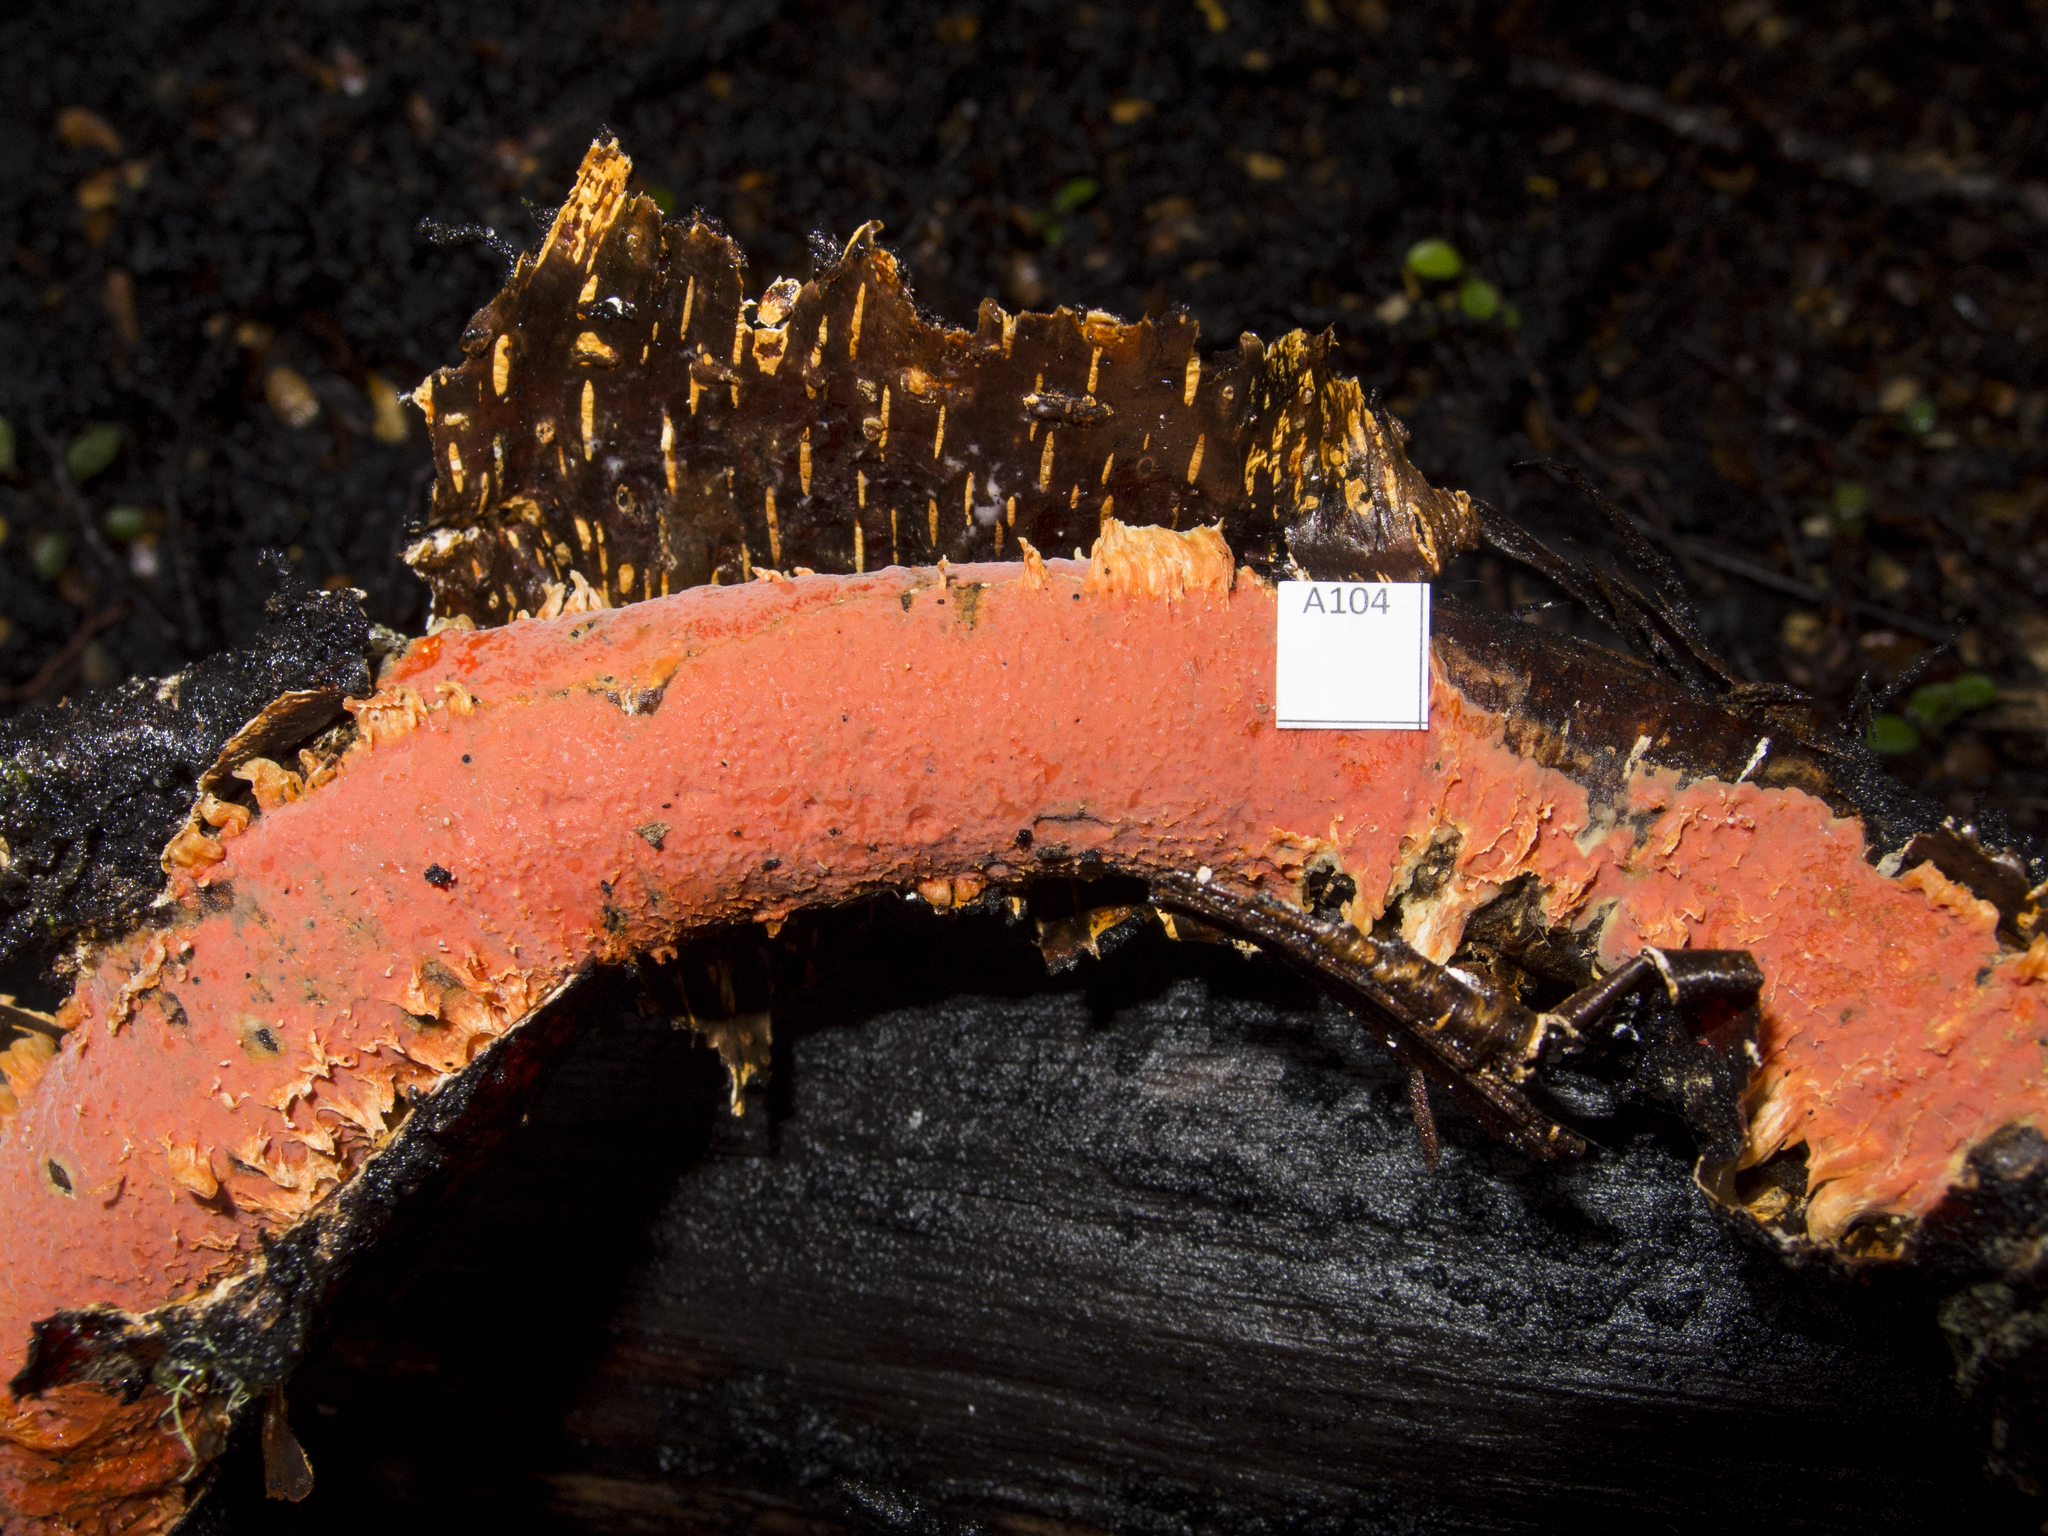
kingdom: Fungi
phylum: Basidiomycota
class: Agaricomycetes
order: Corticiales
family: Vuilleminiaceae
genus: Australovuilleminia
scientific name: Australovuilleminia coccinea
